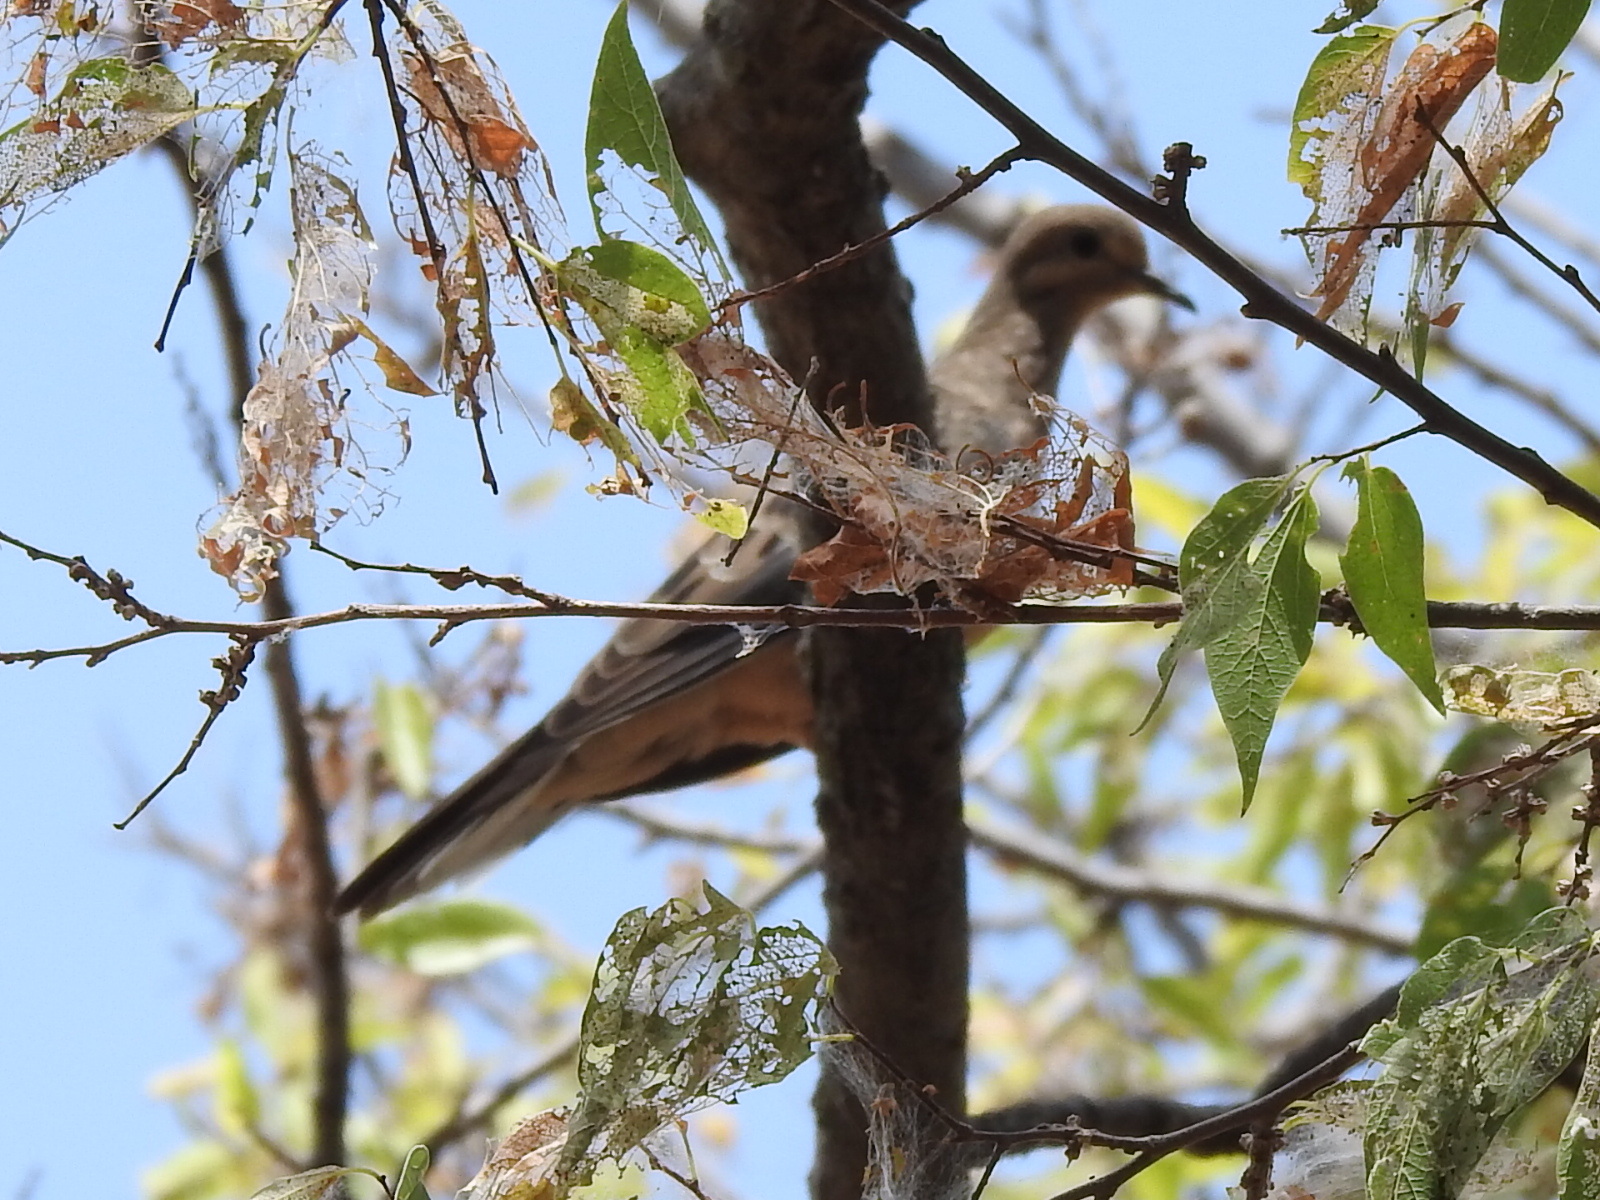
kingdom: Animalia
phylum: Chordata
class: Aves
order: Columbiformes
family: Columbidae
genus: Zenaida
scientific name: Zenaida macroura
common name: Mourning dove
